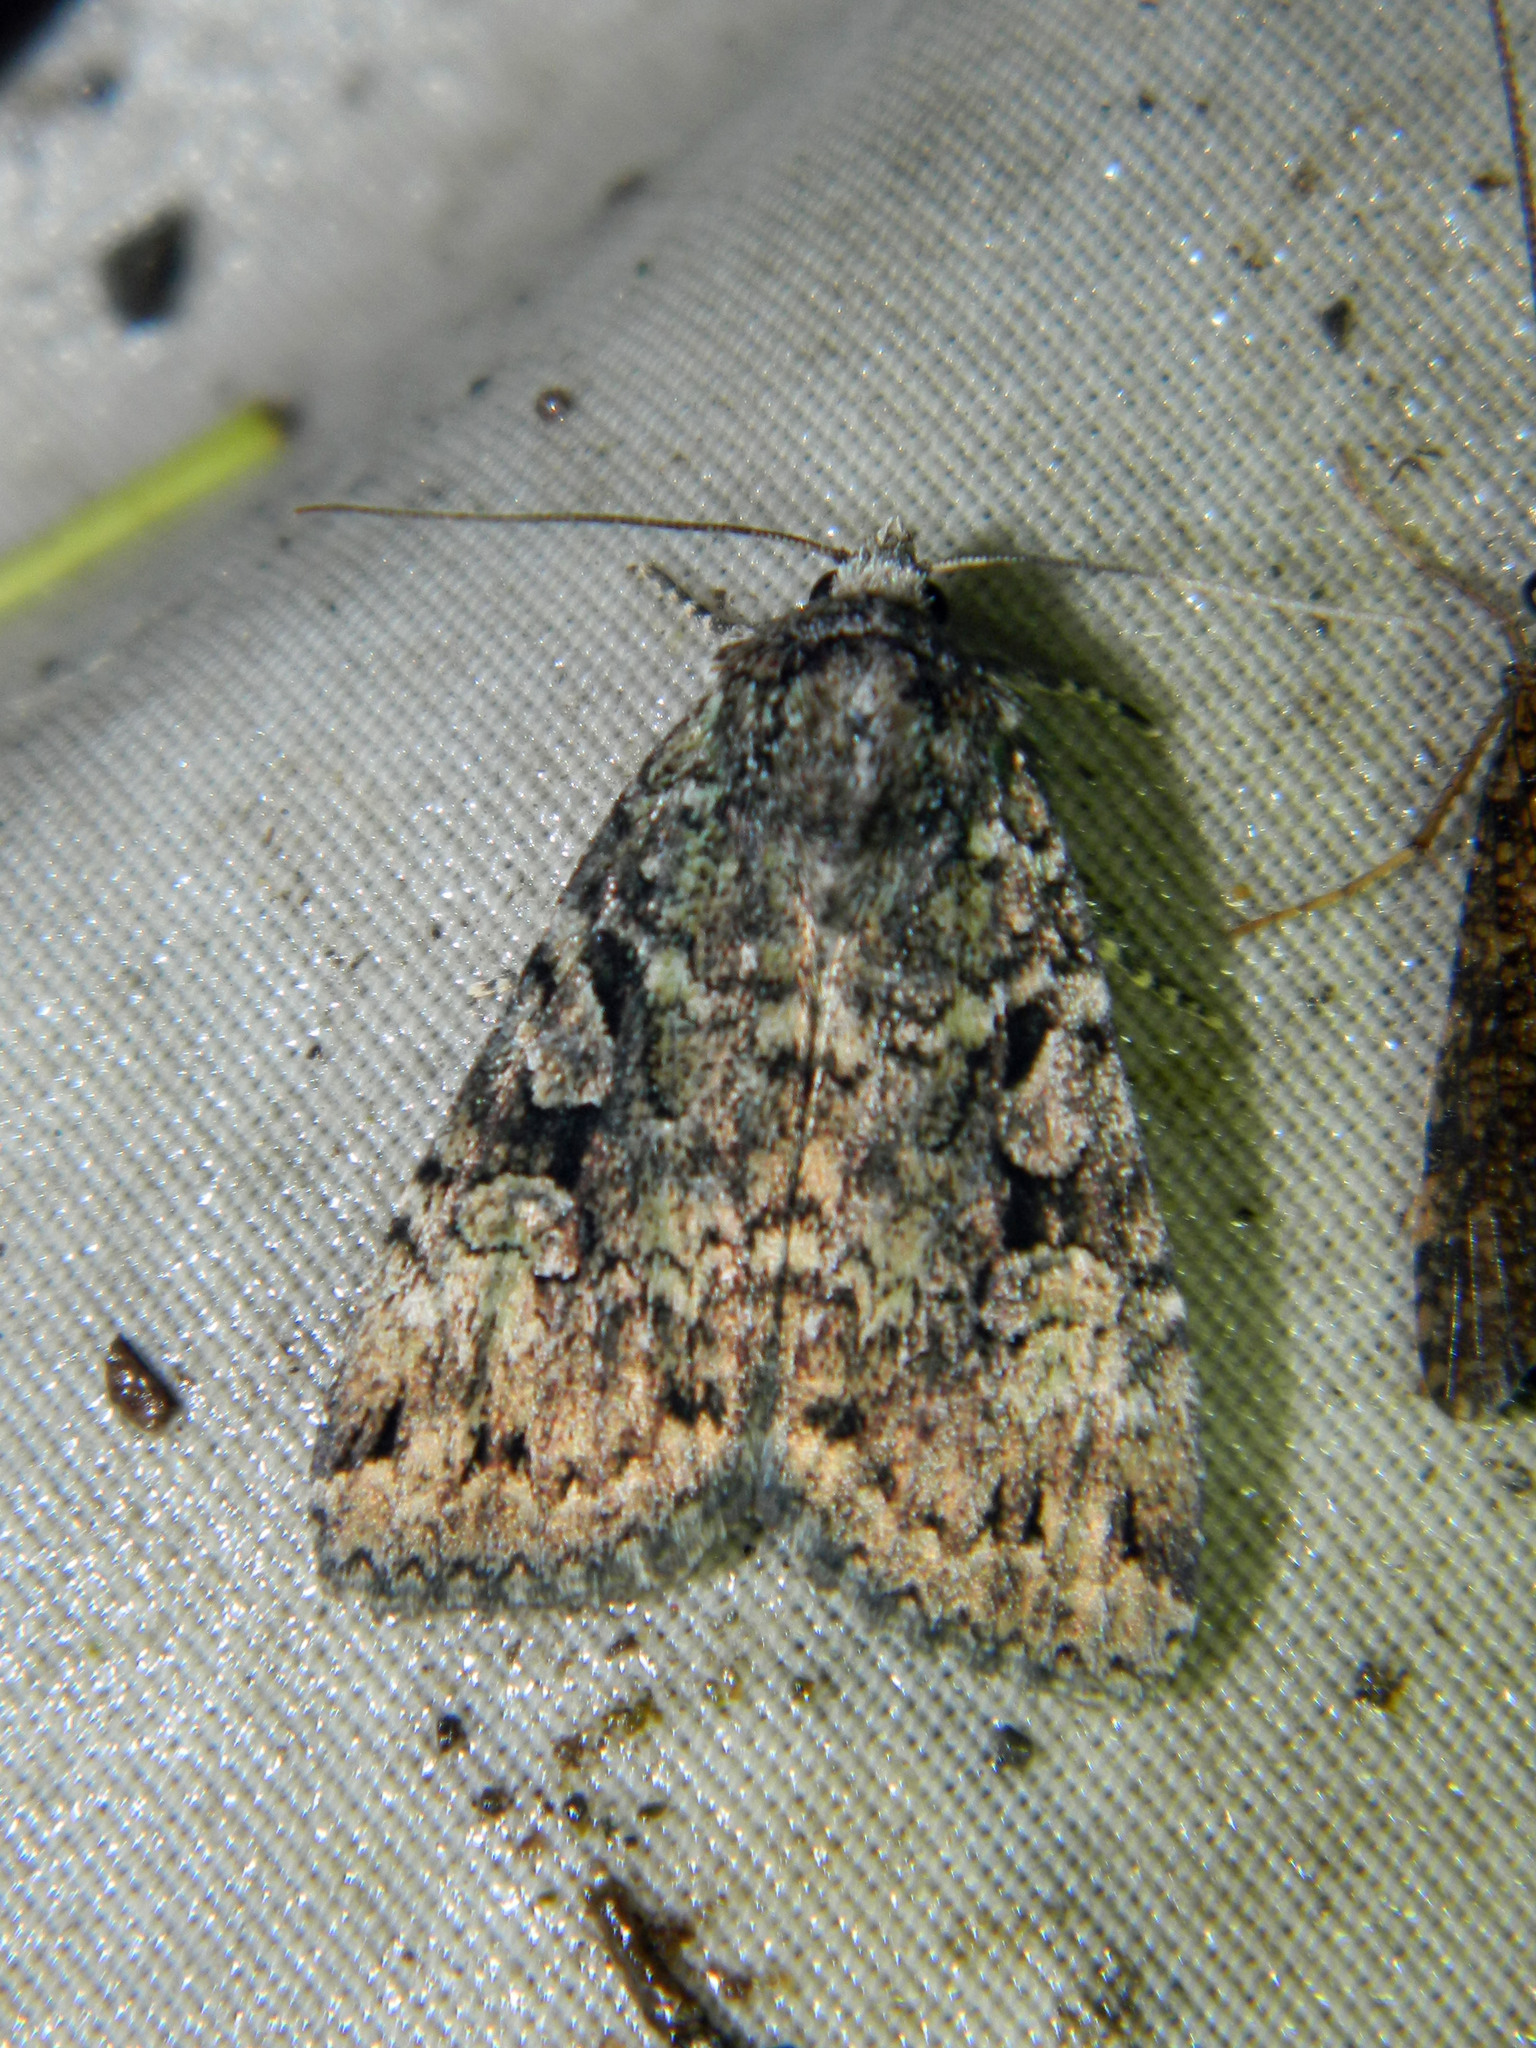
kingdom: Animalia
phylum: Arthropoda
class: Insecta
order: Lepidoptera
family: Noctuidae
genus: Anaplectoides
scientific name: Anaplectoides prasina
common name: Green arches
